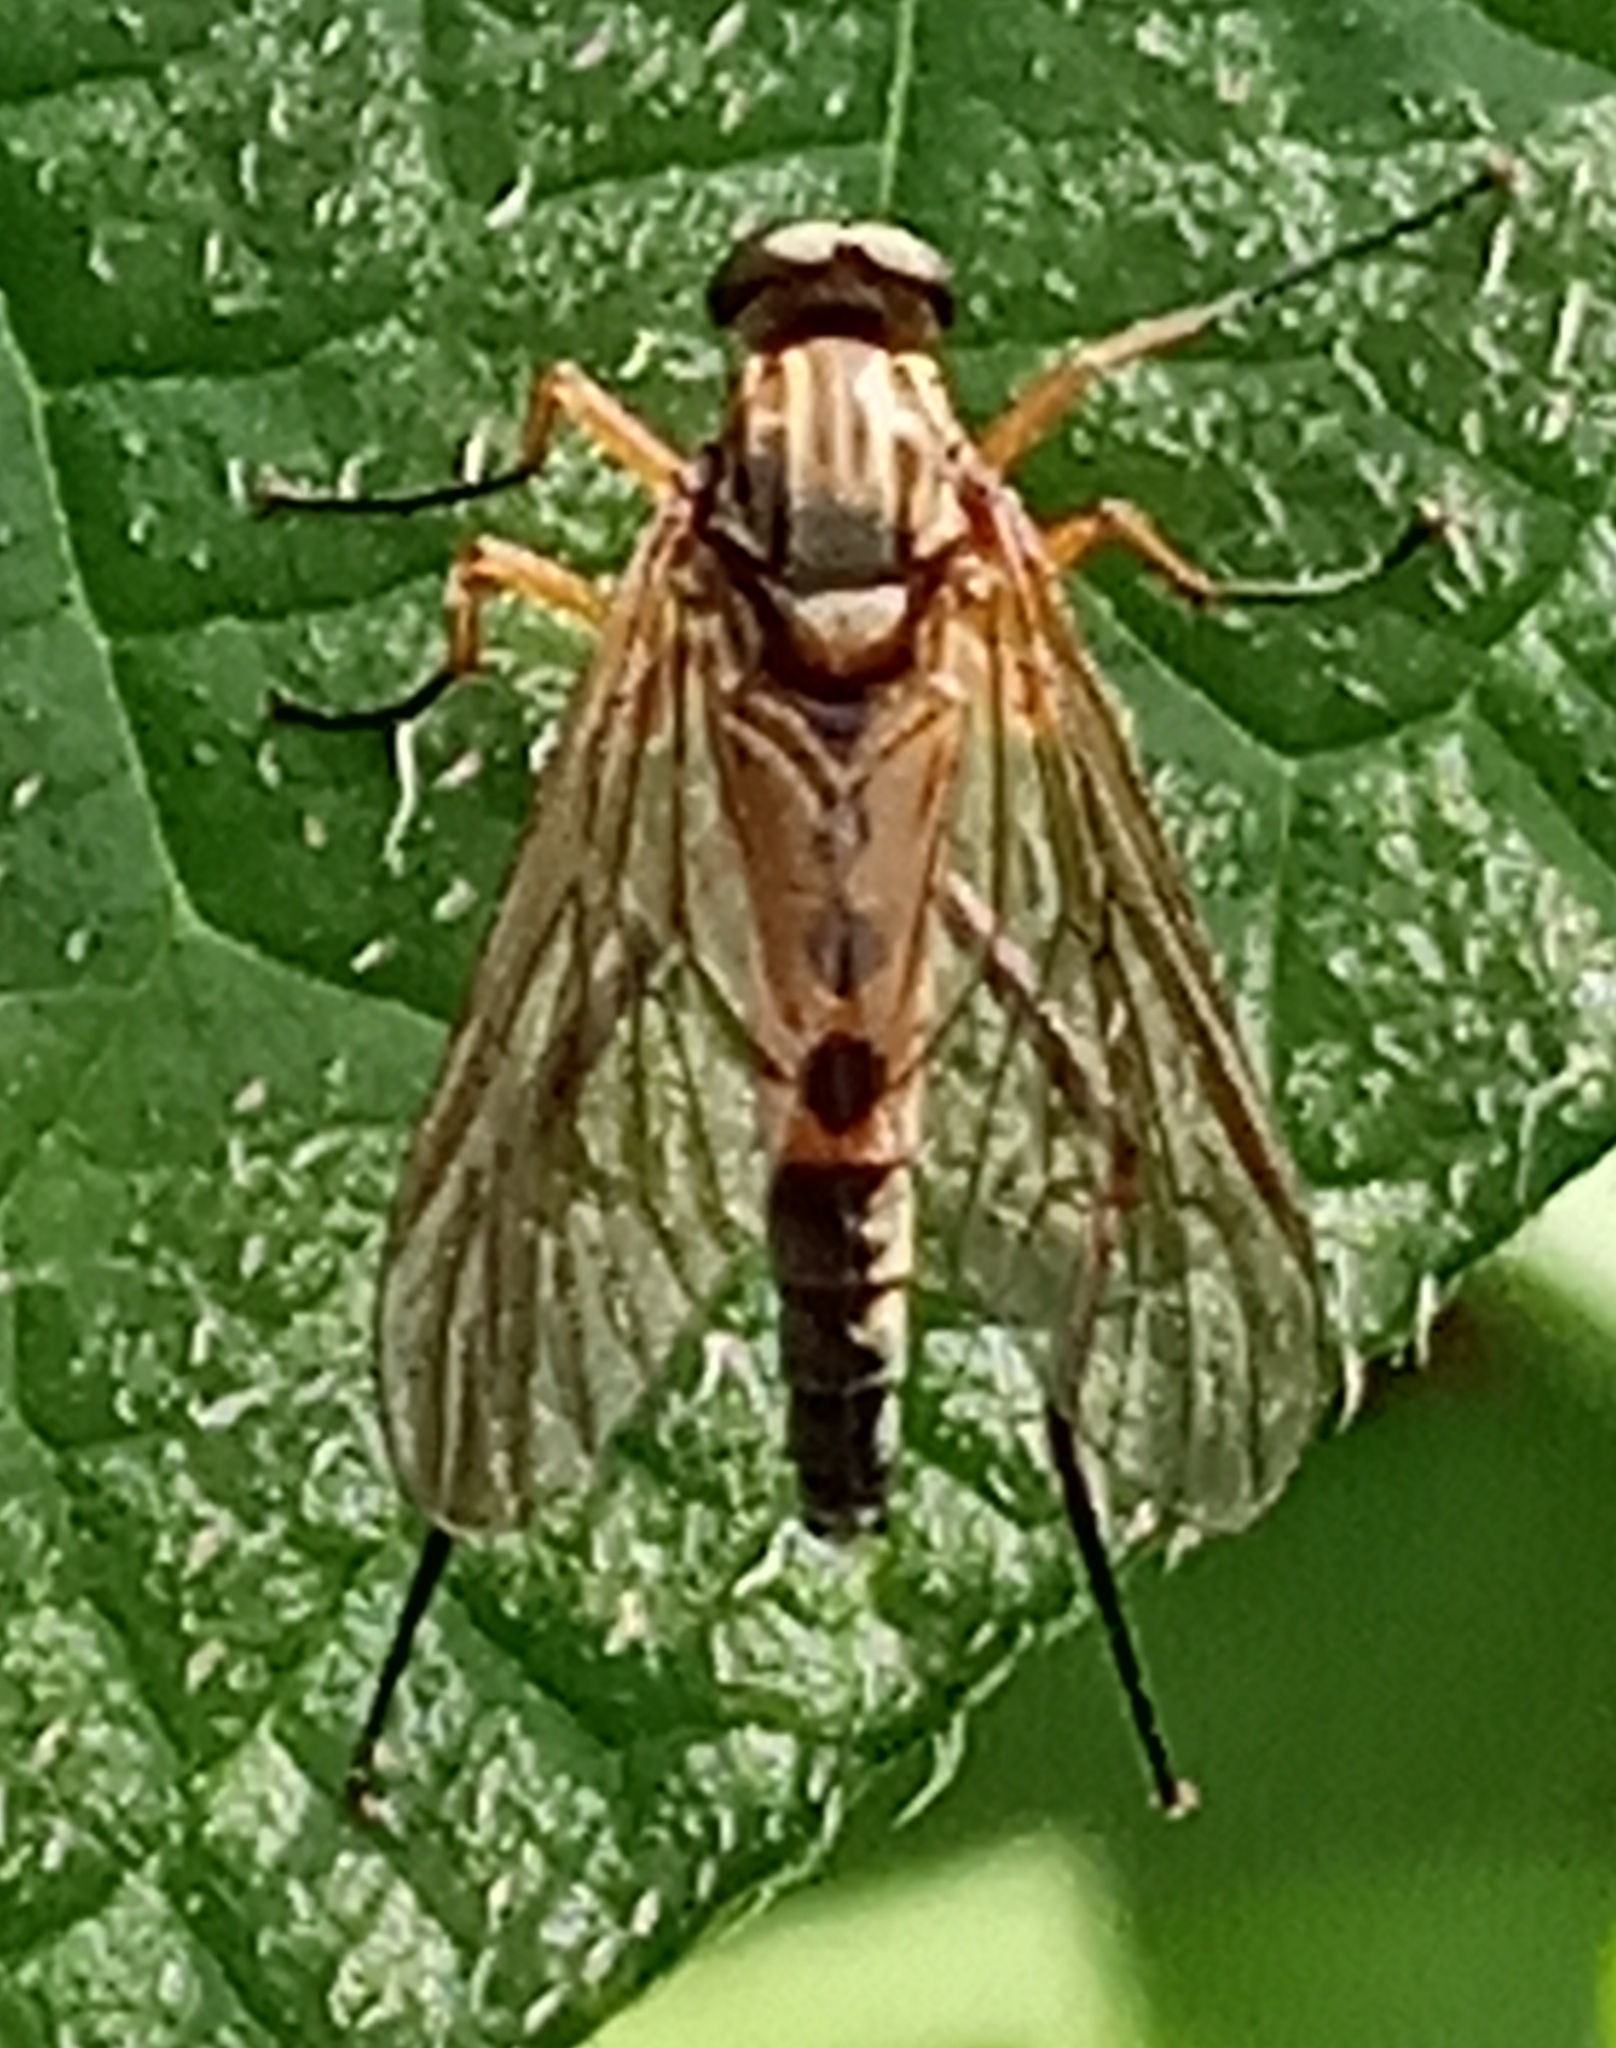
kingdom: Animalia
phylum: Arthropoda
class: Insecta
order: Diptera
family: Rhagionidae
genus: Rhagio
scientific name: Rhagio tringaria
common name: Marsh snipefly
